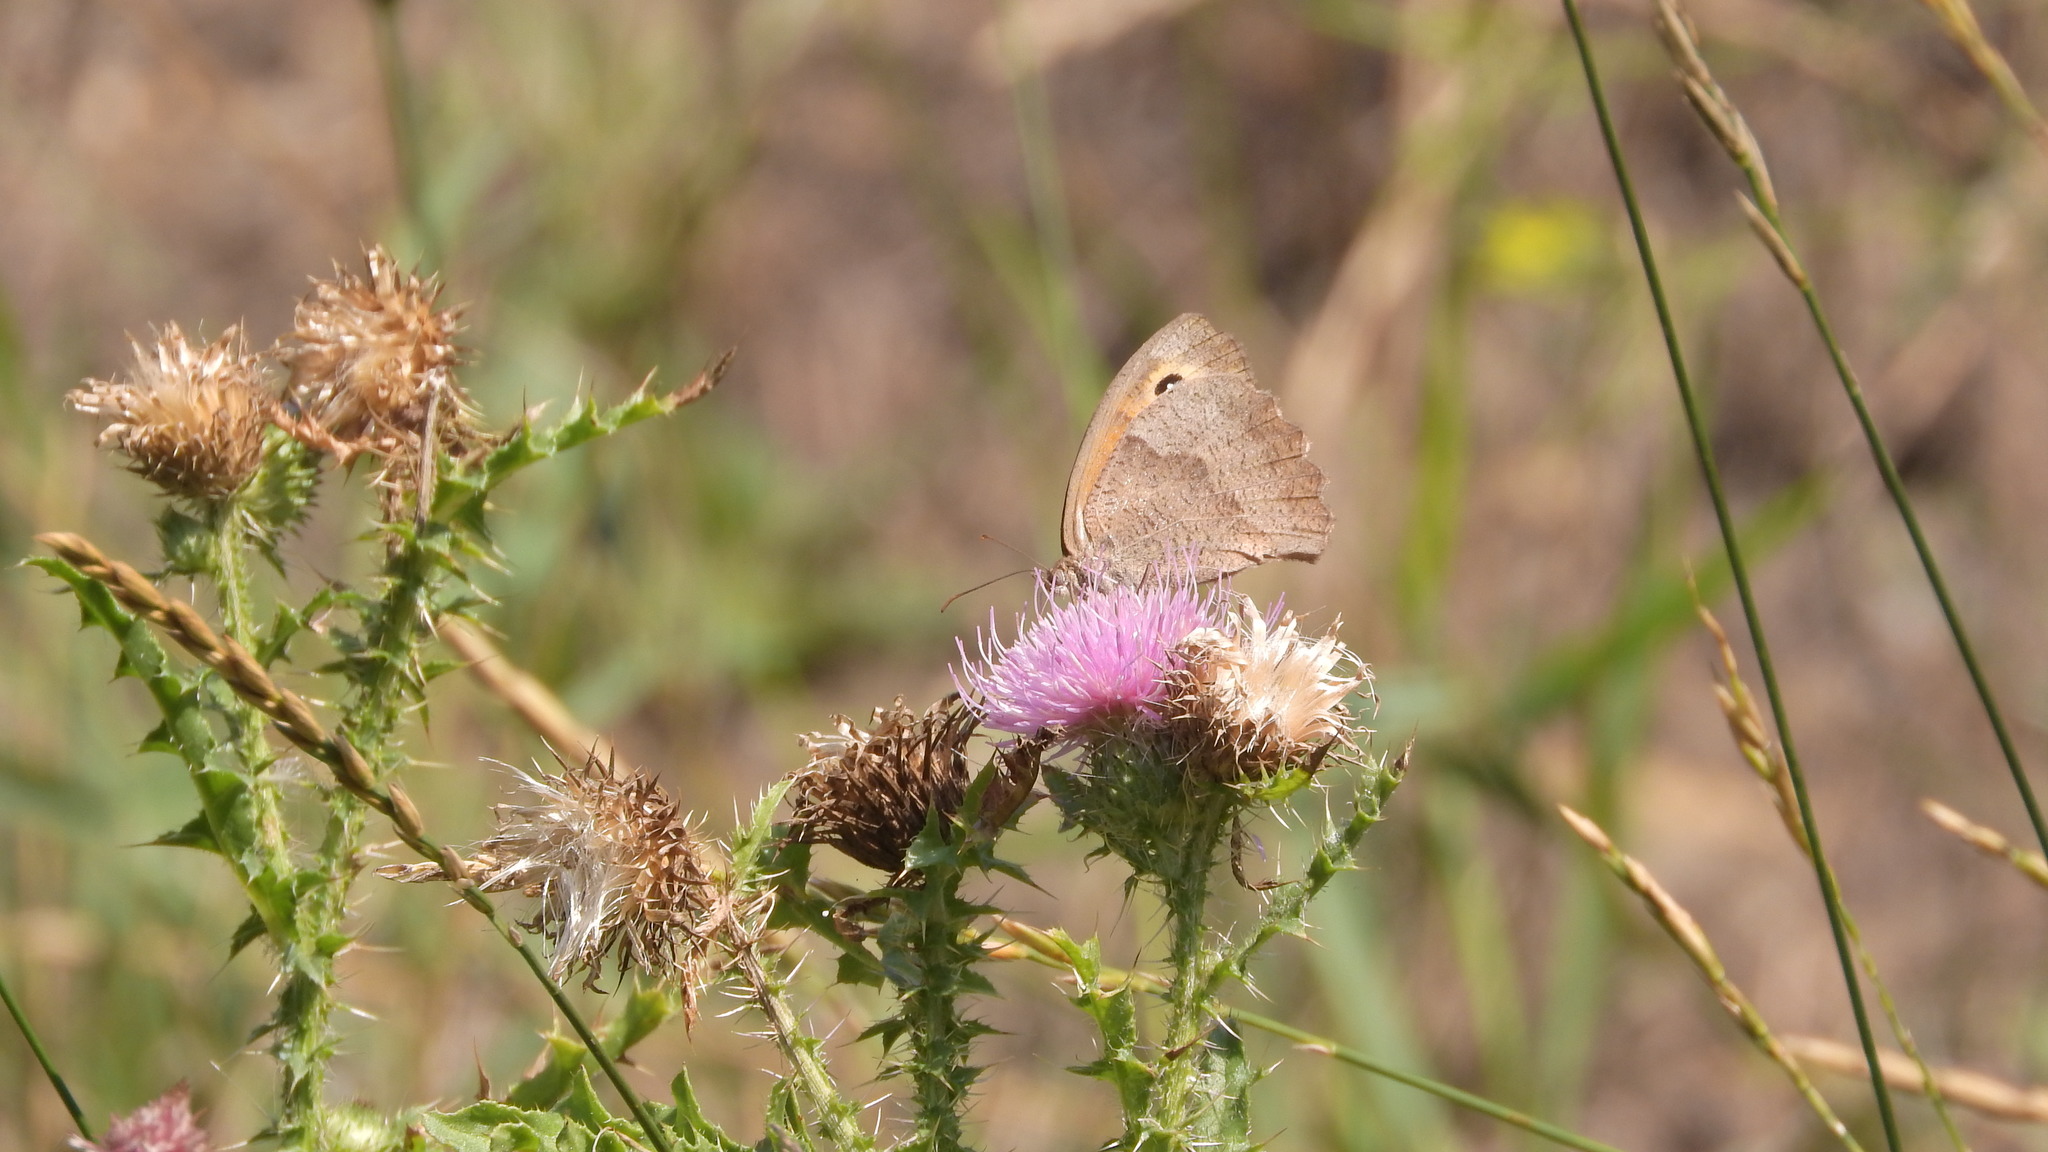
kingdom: Animalia
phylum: Arthropoda
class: Insecta
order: Lepidoptera
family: Nymphalidae
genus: Maniola
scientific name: Maniola jurtina
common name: Meadow brown
